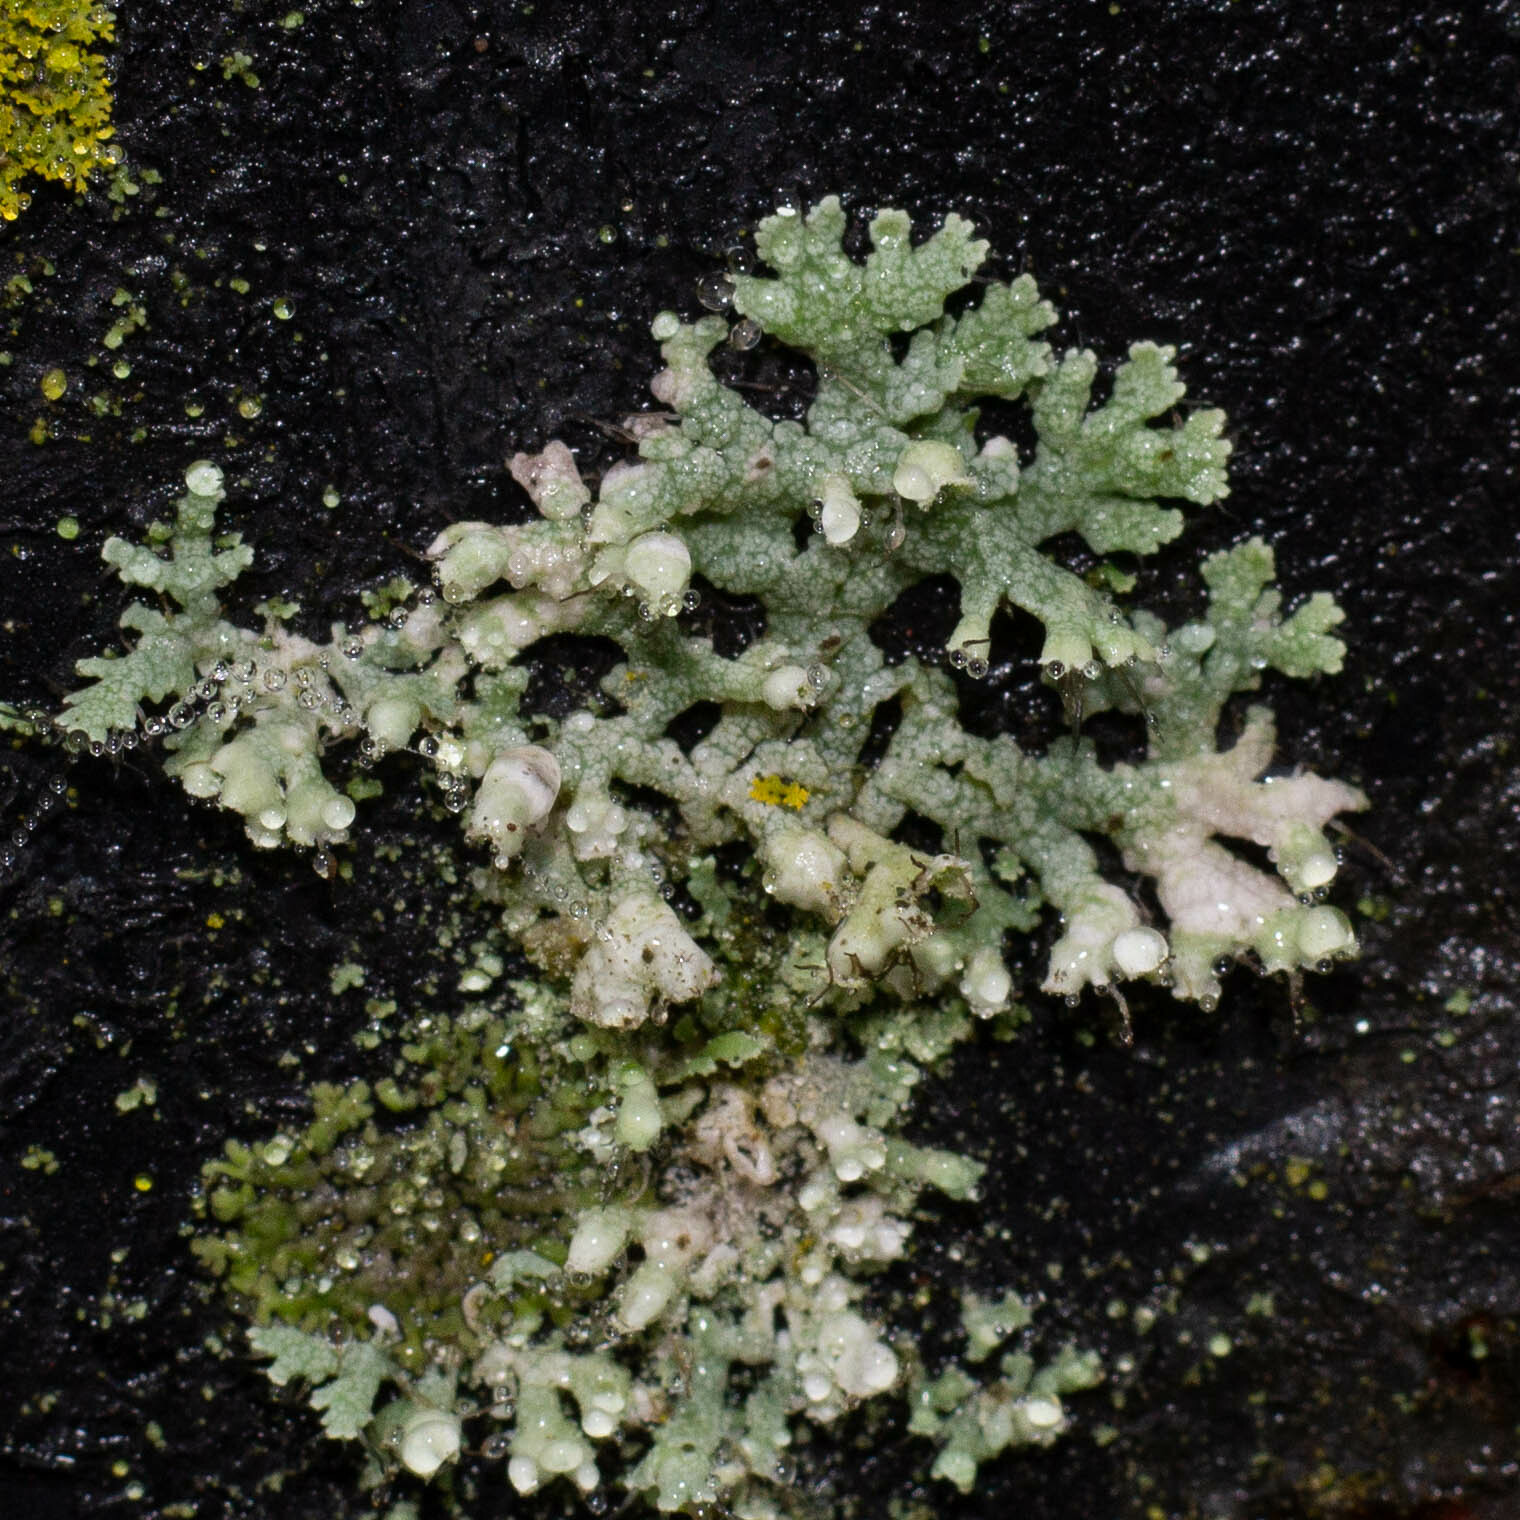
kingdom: Fungi
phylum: Ascomycota
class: Lecanoromycetes
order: Caliciales
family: Physciaceae
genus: Physcia
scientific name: Physcia adscendens
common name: Hooded rosette lichen
